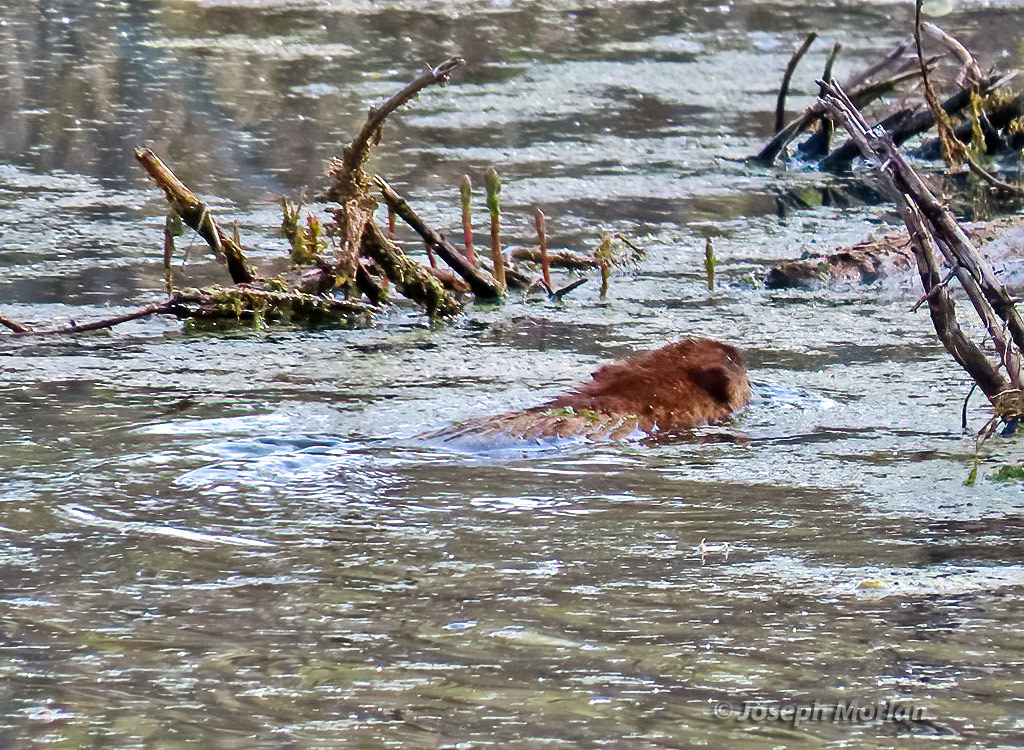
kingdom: Animalia
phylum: Chordata
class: Mammalia
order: Rodentia
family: Cricetidae
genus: Ondatra
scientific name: Ondatra zibethicus
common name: Muskrat
